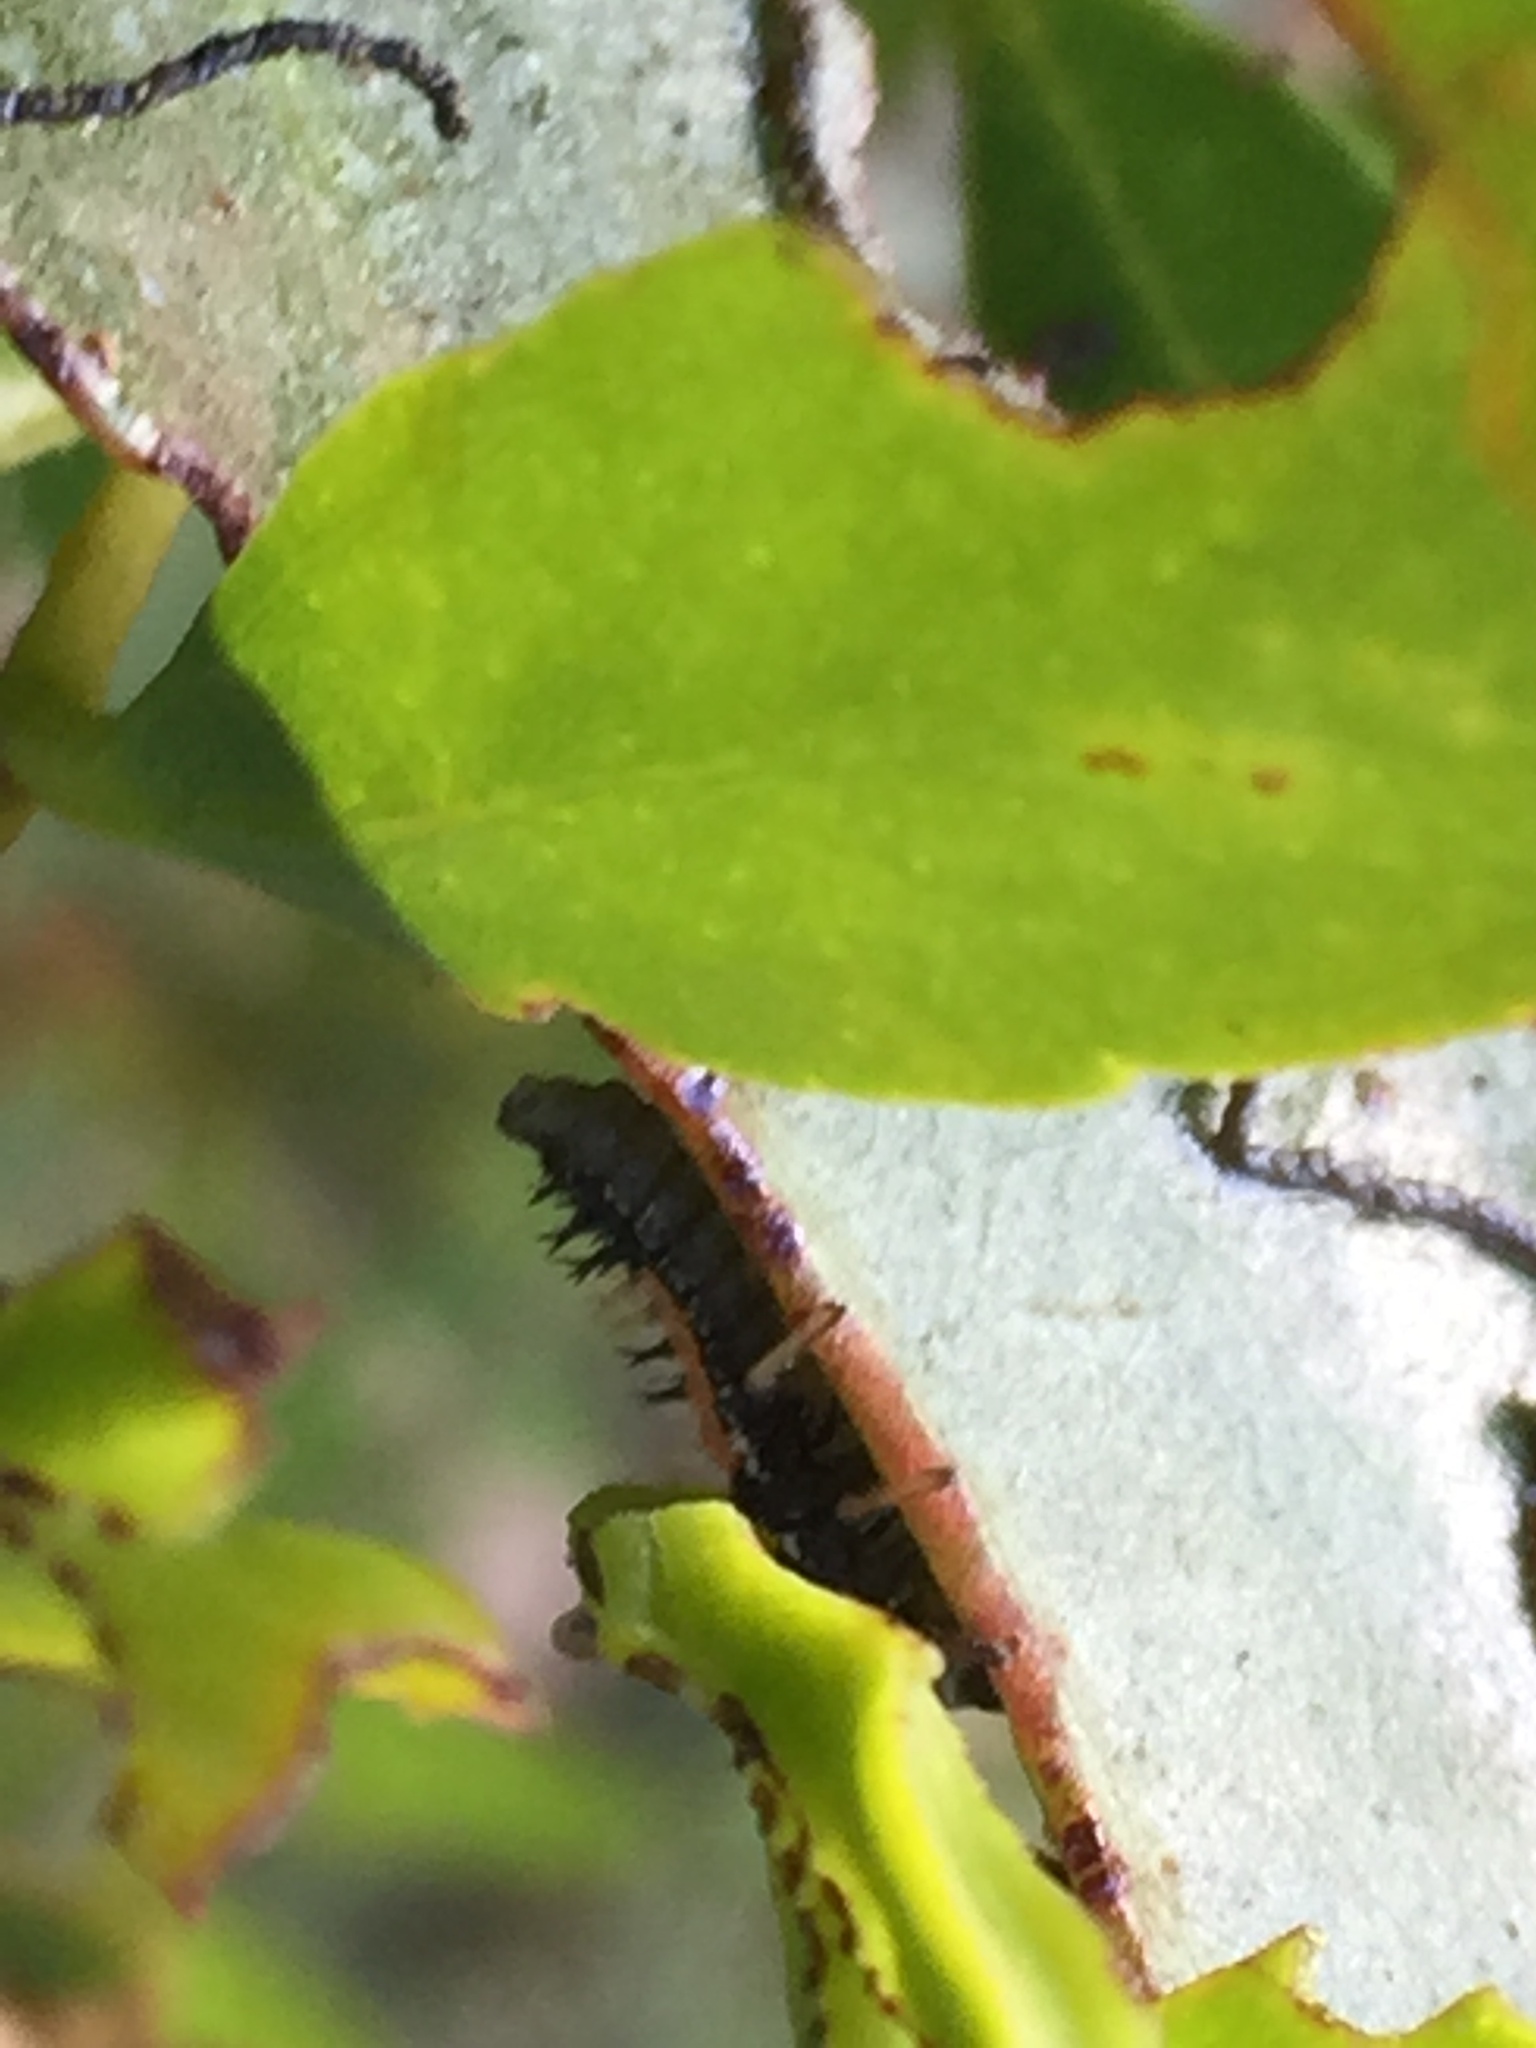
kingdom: Animalia
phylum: Arthropoda
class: Insecta
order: Coleoptera
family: Coccinellidae
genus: Harmonia
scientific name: Harmonia axyridis
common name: Harlequin ladybird
